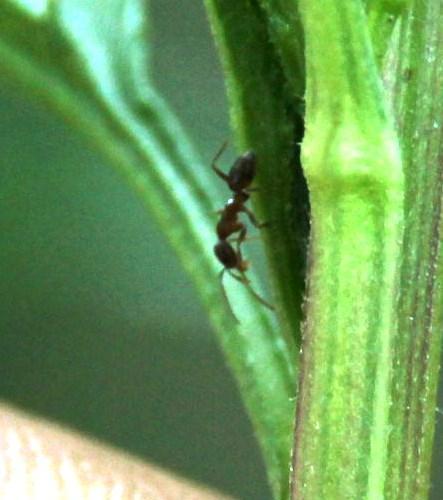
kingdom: Animalia
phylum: Arthropoda
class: Insecta
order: Hymenoptera
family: Formicidae
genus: Linepithema
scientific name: Linepithema humile
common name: Argentine ant
